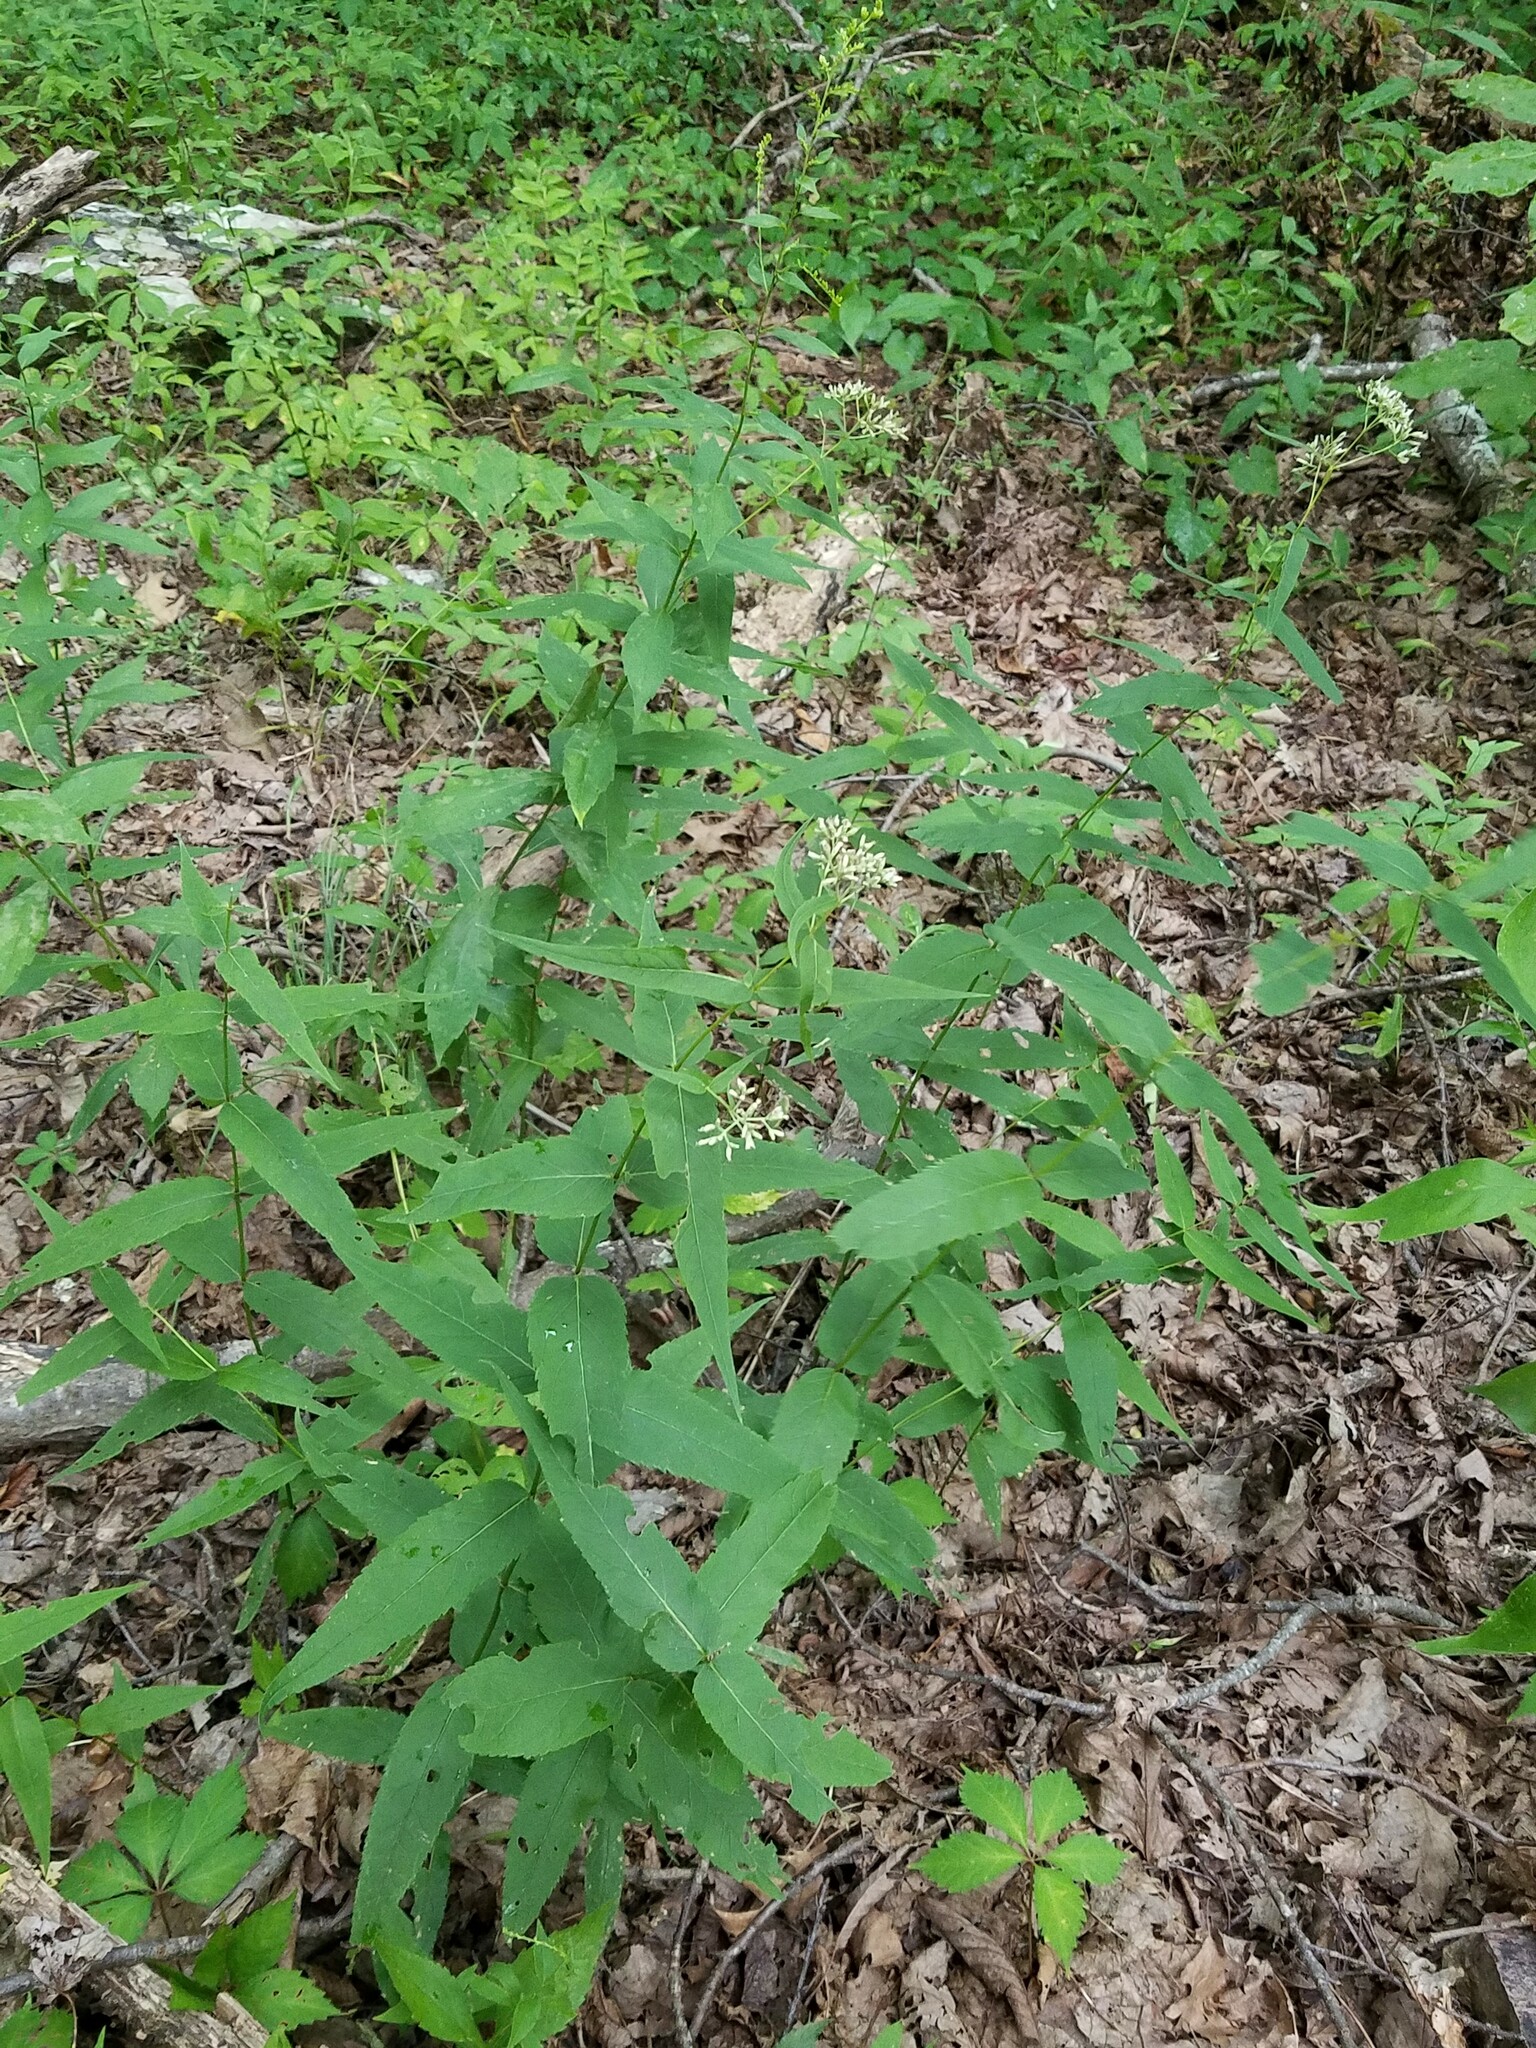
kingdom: Plantae
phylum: Tracheophyta
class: Magnoliopsida
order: Asterales
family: Asteraceae
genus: Eupatorium
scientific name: Eupatorium sessilifolium
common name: Upland boneset
